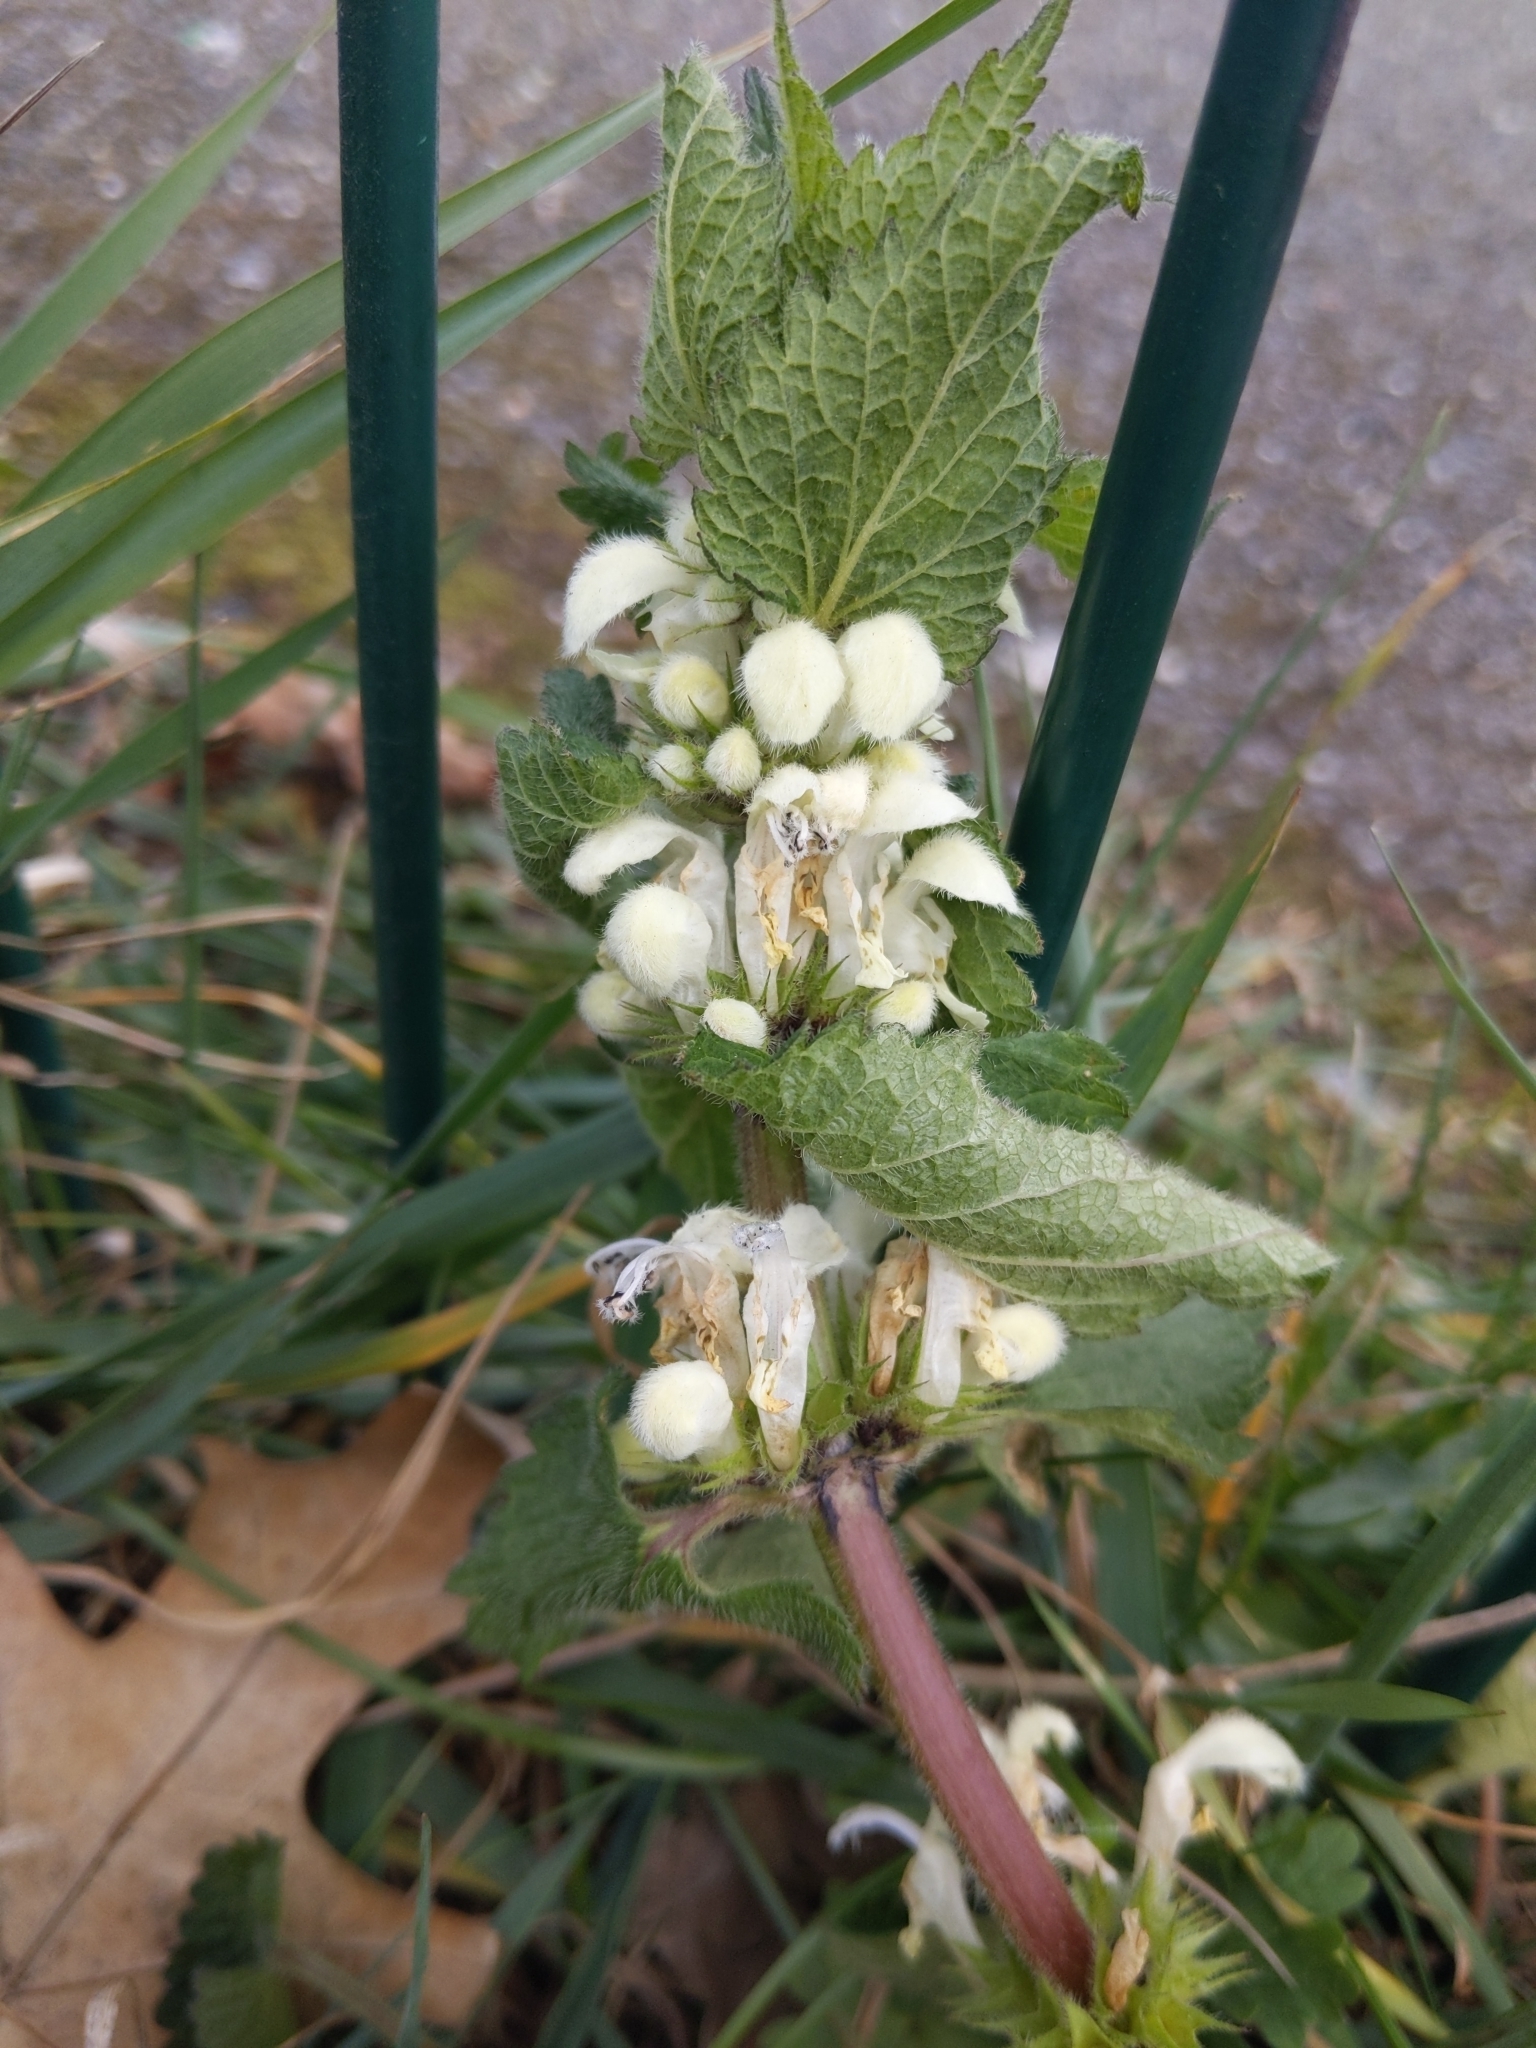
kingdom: Plantae
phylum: Tracheophyta
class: Magnoliopsida
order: Lamiales
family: Lamiaceae
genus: Lamium
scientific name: Lamium album
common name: White dead-nettle
